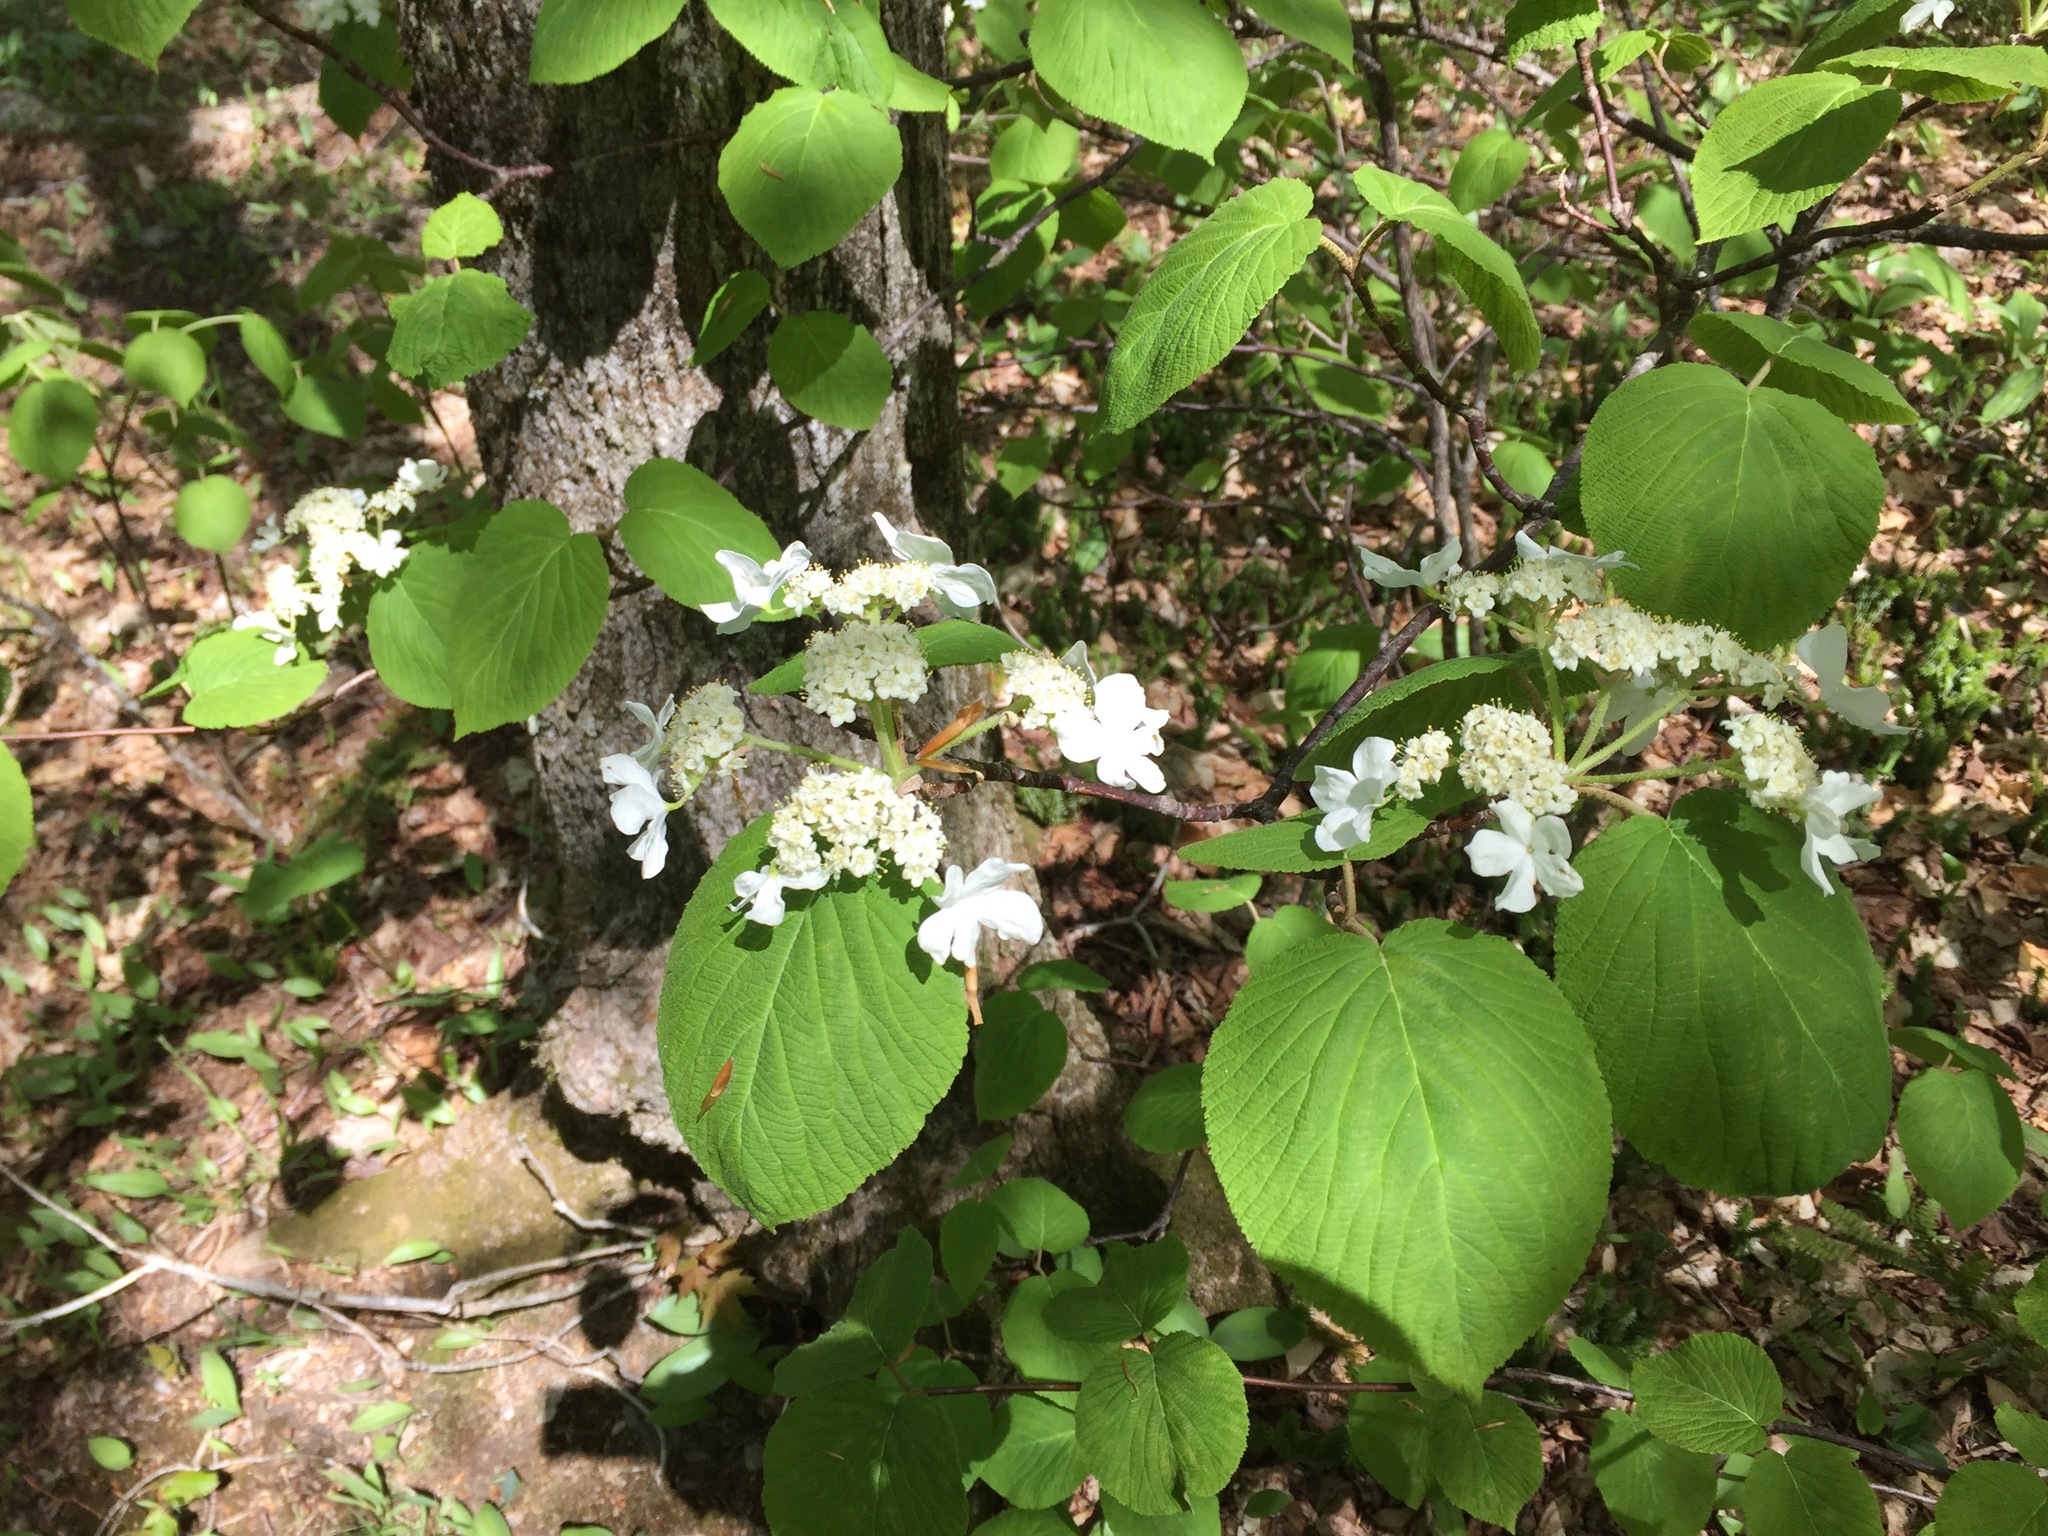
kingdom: Plantae
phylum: Tracheophyta
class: Magnoliopsida
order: Dipsacales
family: Viburnaceae
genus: Viburnum
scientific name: Viburnum lantanoides
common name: Hobblebush
